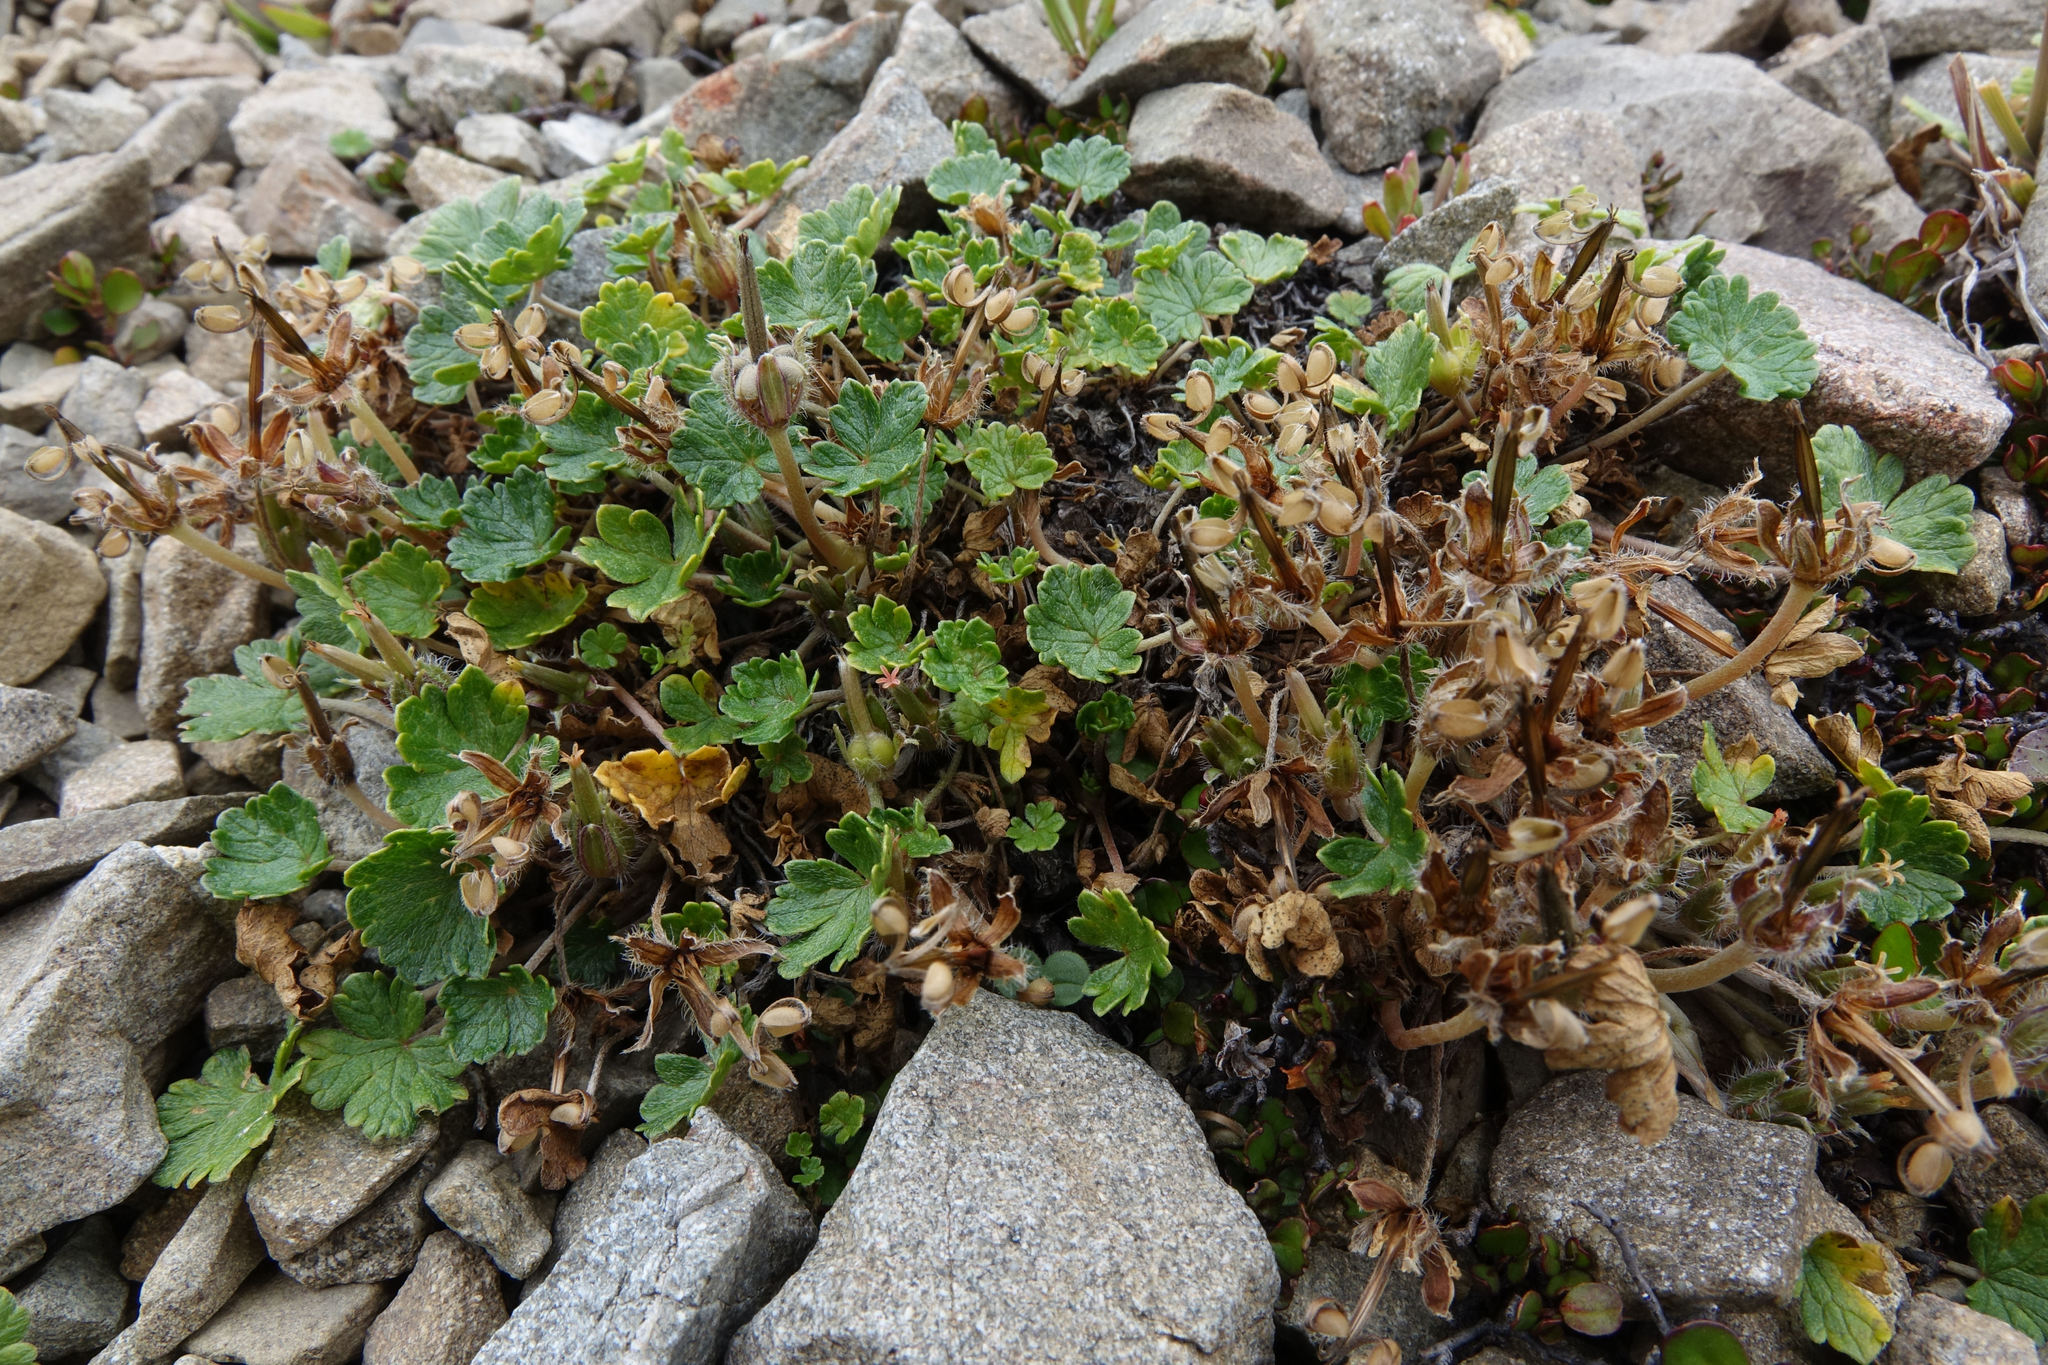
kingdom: Plantae
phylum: Tracheophyta
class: Magnoliopsida
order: Geraniales
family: Geraniaceae
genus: Geranium
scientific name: Geranium brevicaule
